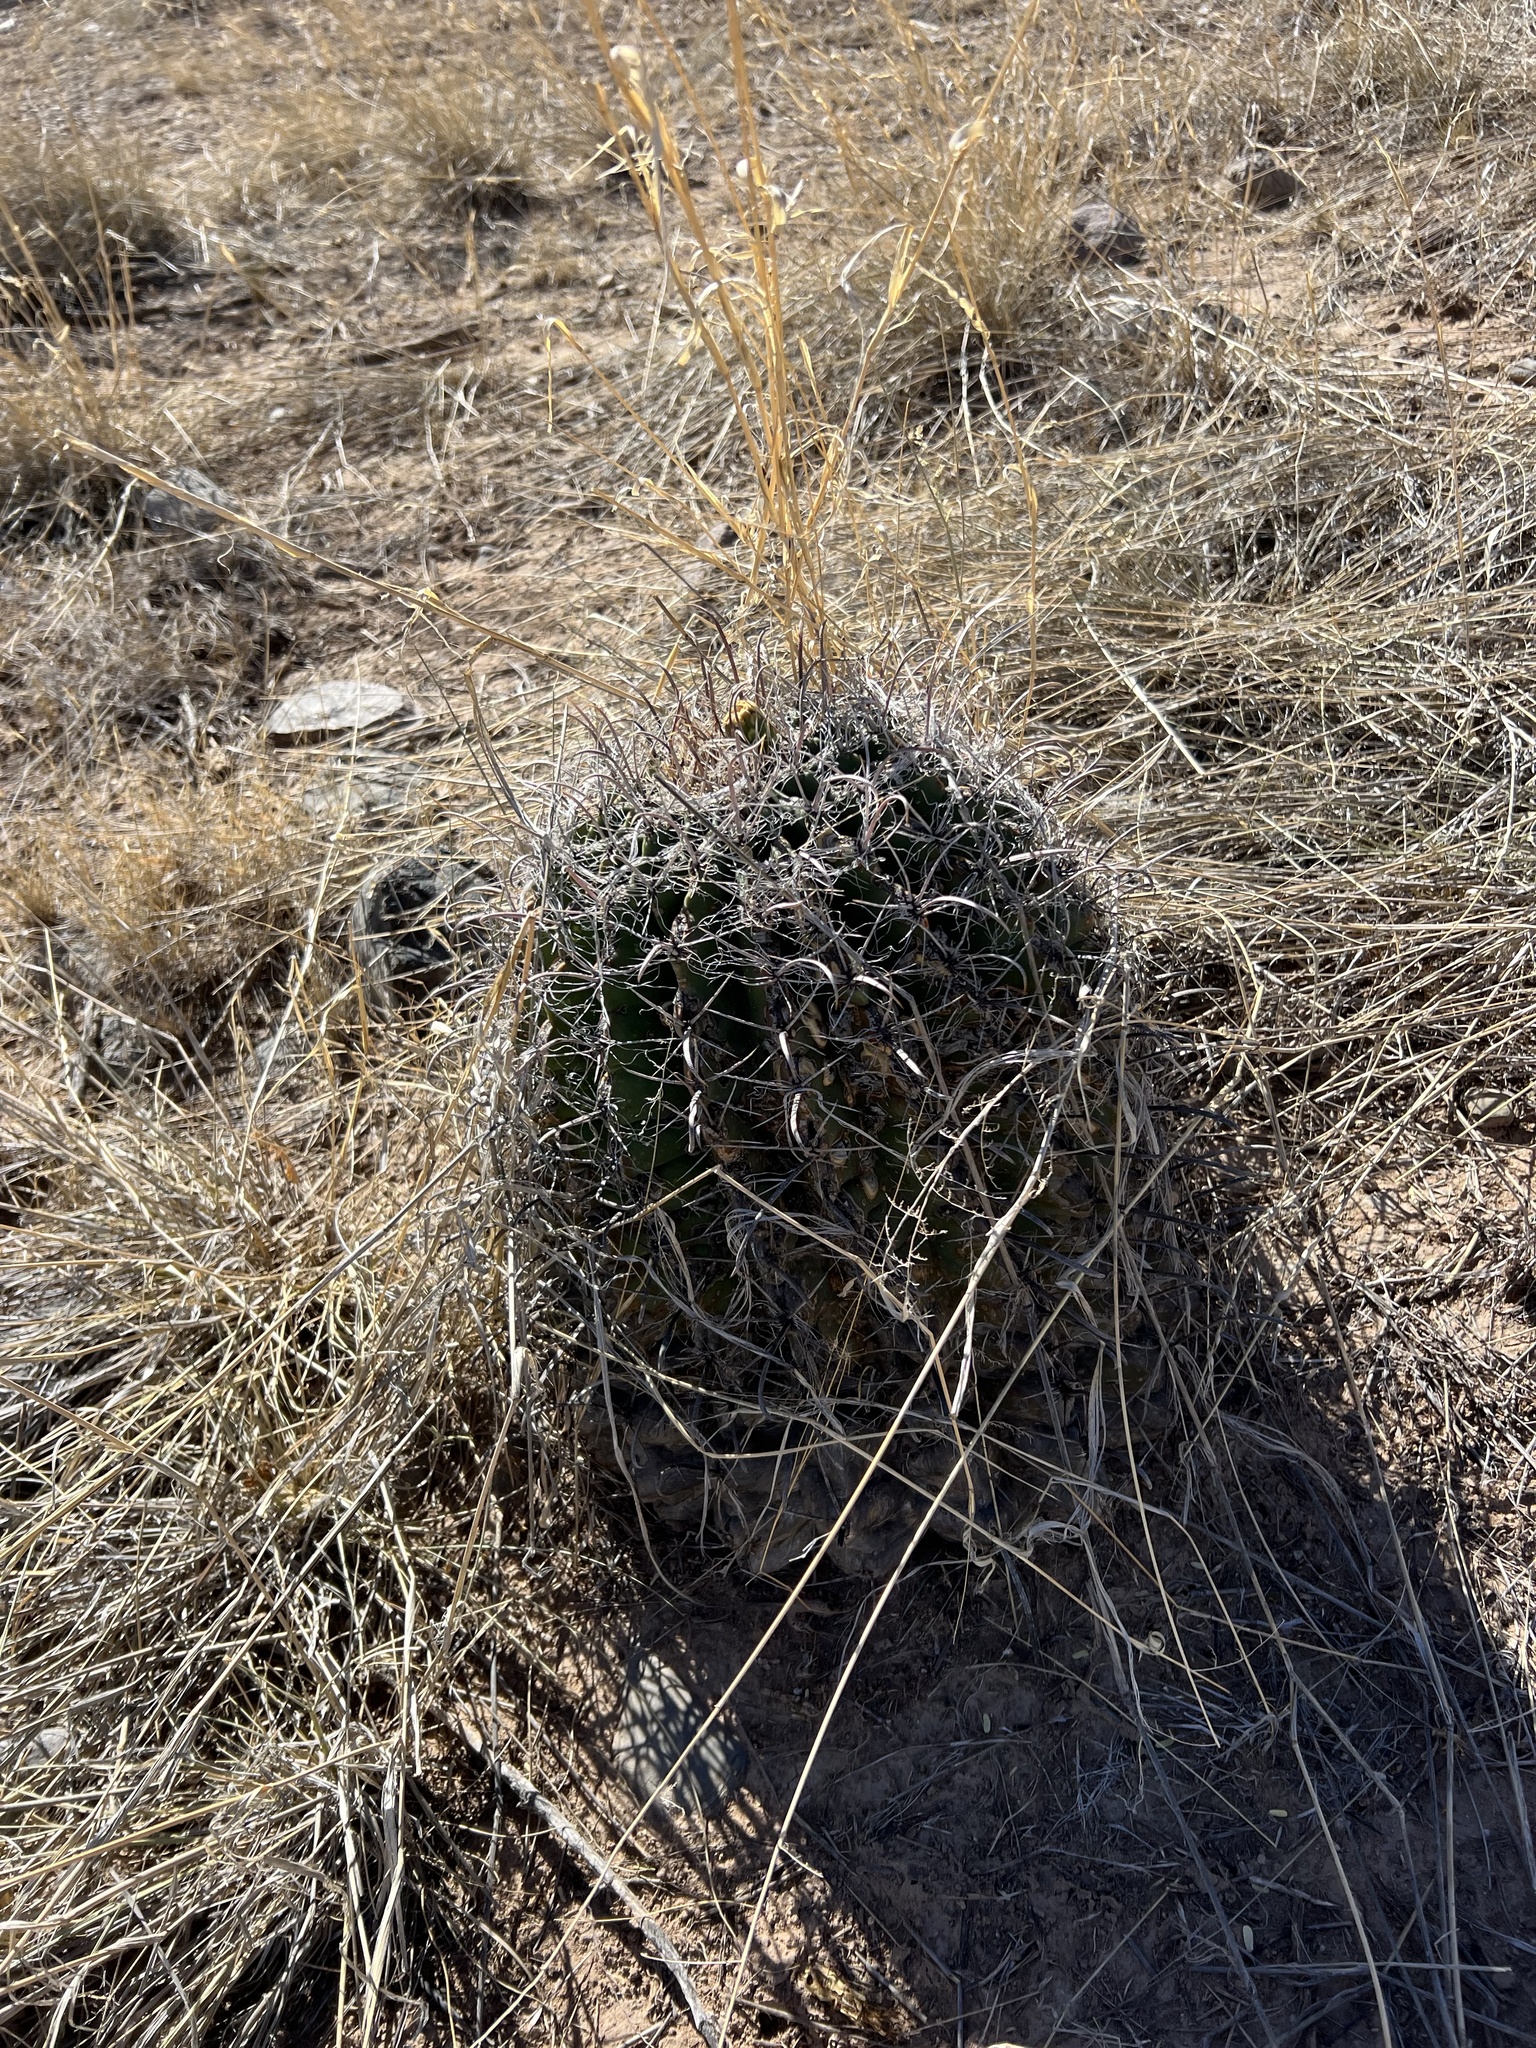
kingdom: Plantae
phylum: Tracheophyta
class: Magnoliopsida
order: Caryophyllales
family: Cactaceae
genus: Ferocactus
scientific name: Ferocactus wislizeni
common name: Candy barrel cactus
